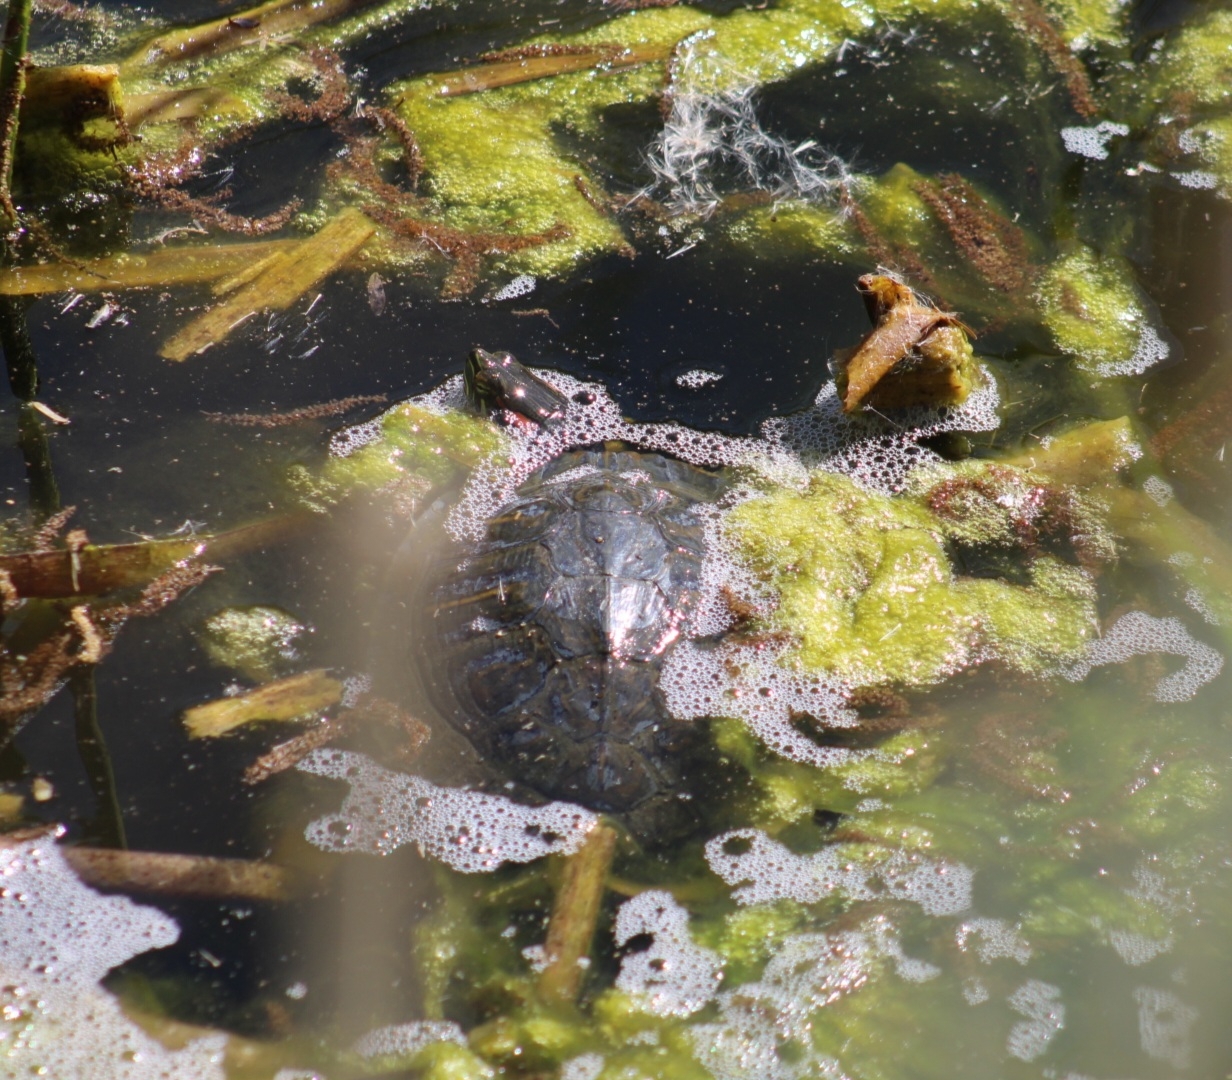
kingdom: Animalia
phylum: Chordata
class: Testudines
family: Emydidae
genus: Trachemys
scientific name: Trachemys scripta
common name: Slider
